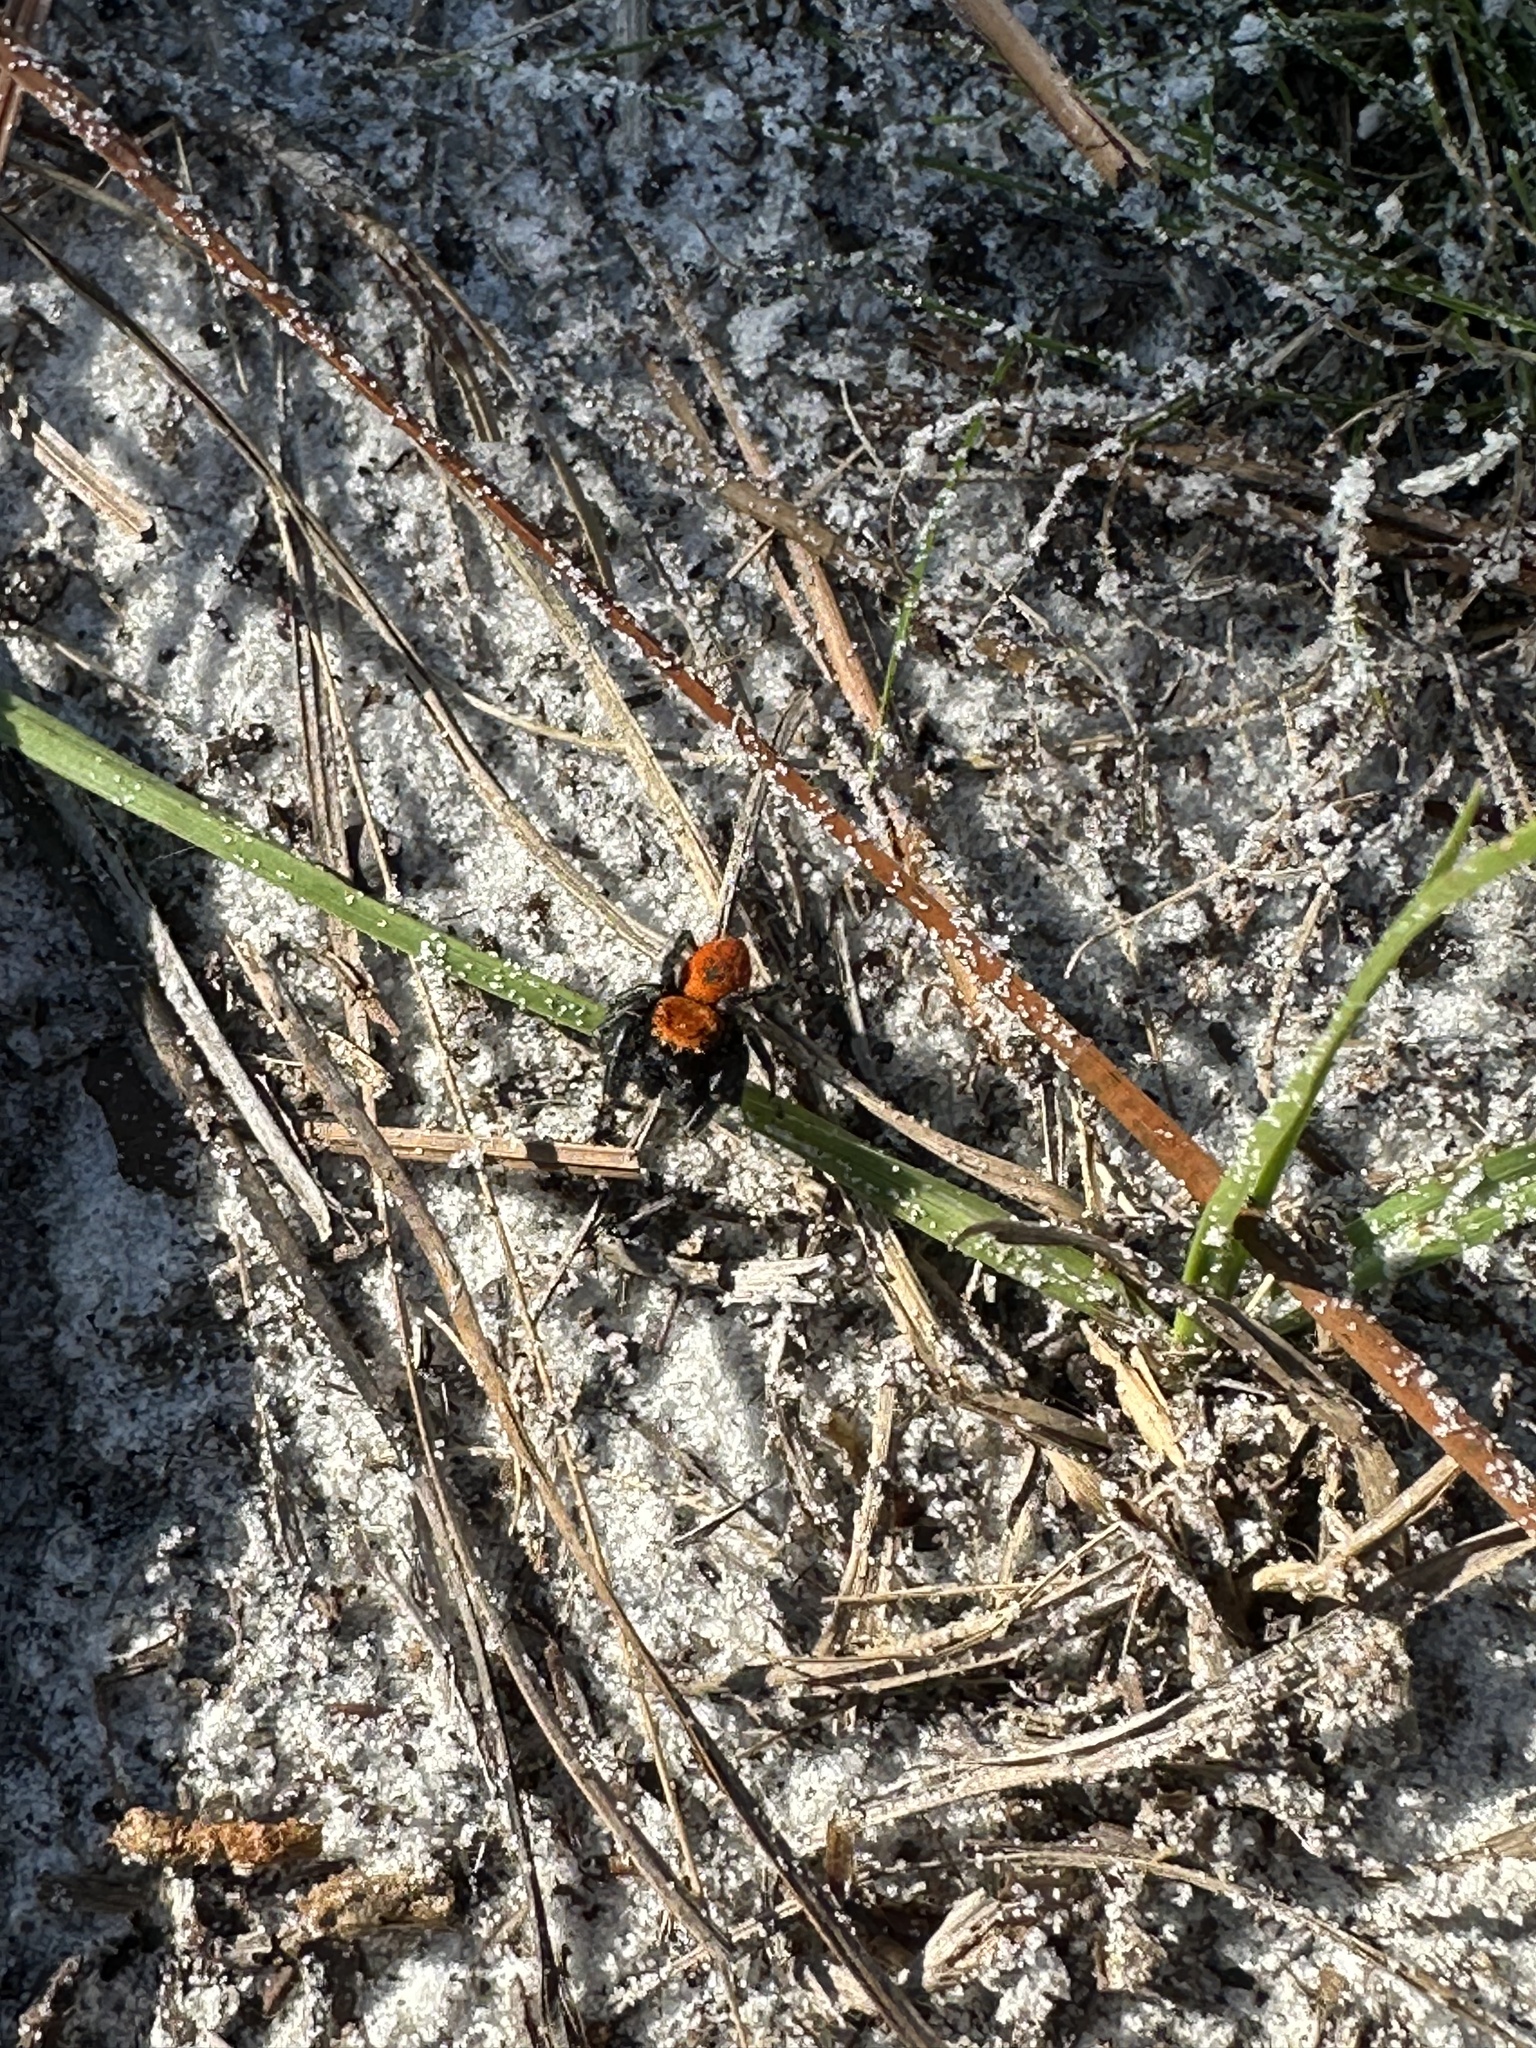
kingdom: Animalia
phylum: Arthropoda
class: Arachnida
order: Araneae
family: Salticidae
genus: Phidippus
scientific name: Phidippus cardinalis
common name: Cardinal jumper
